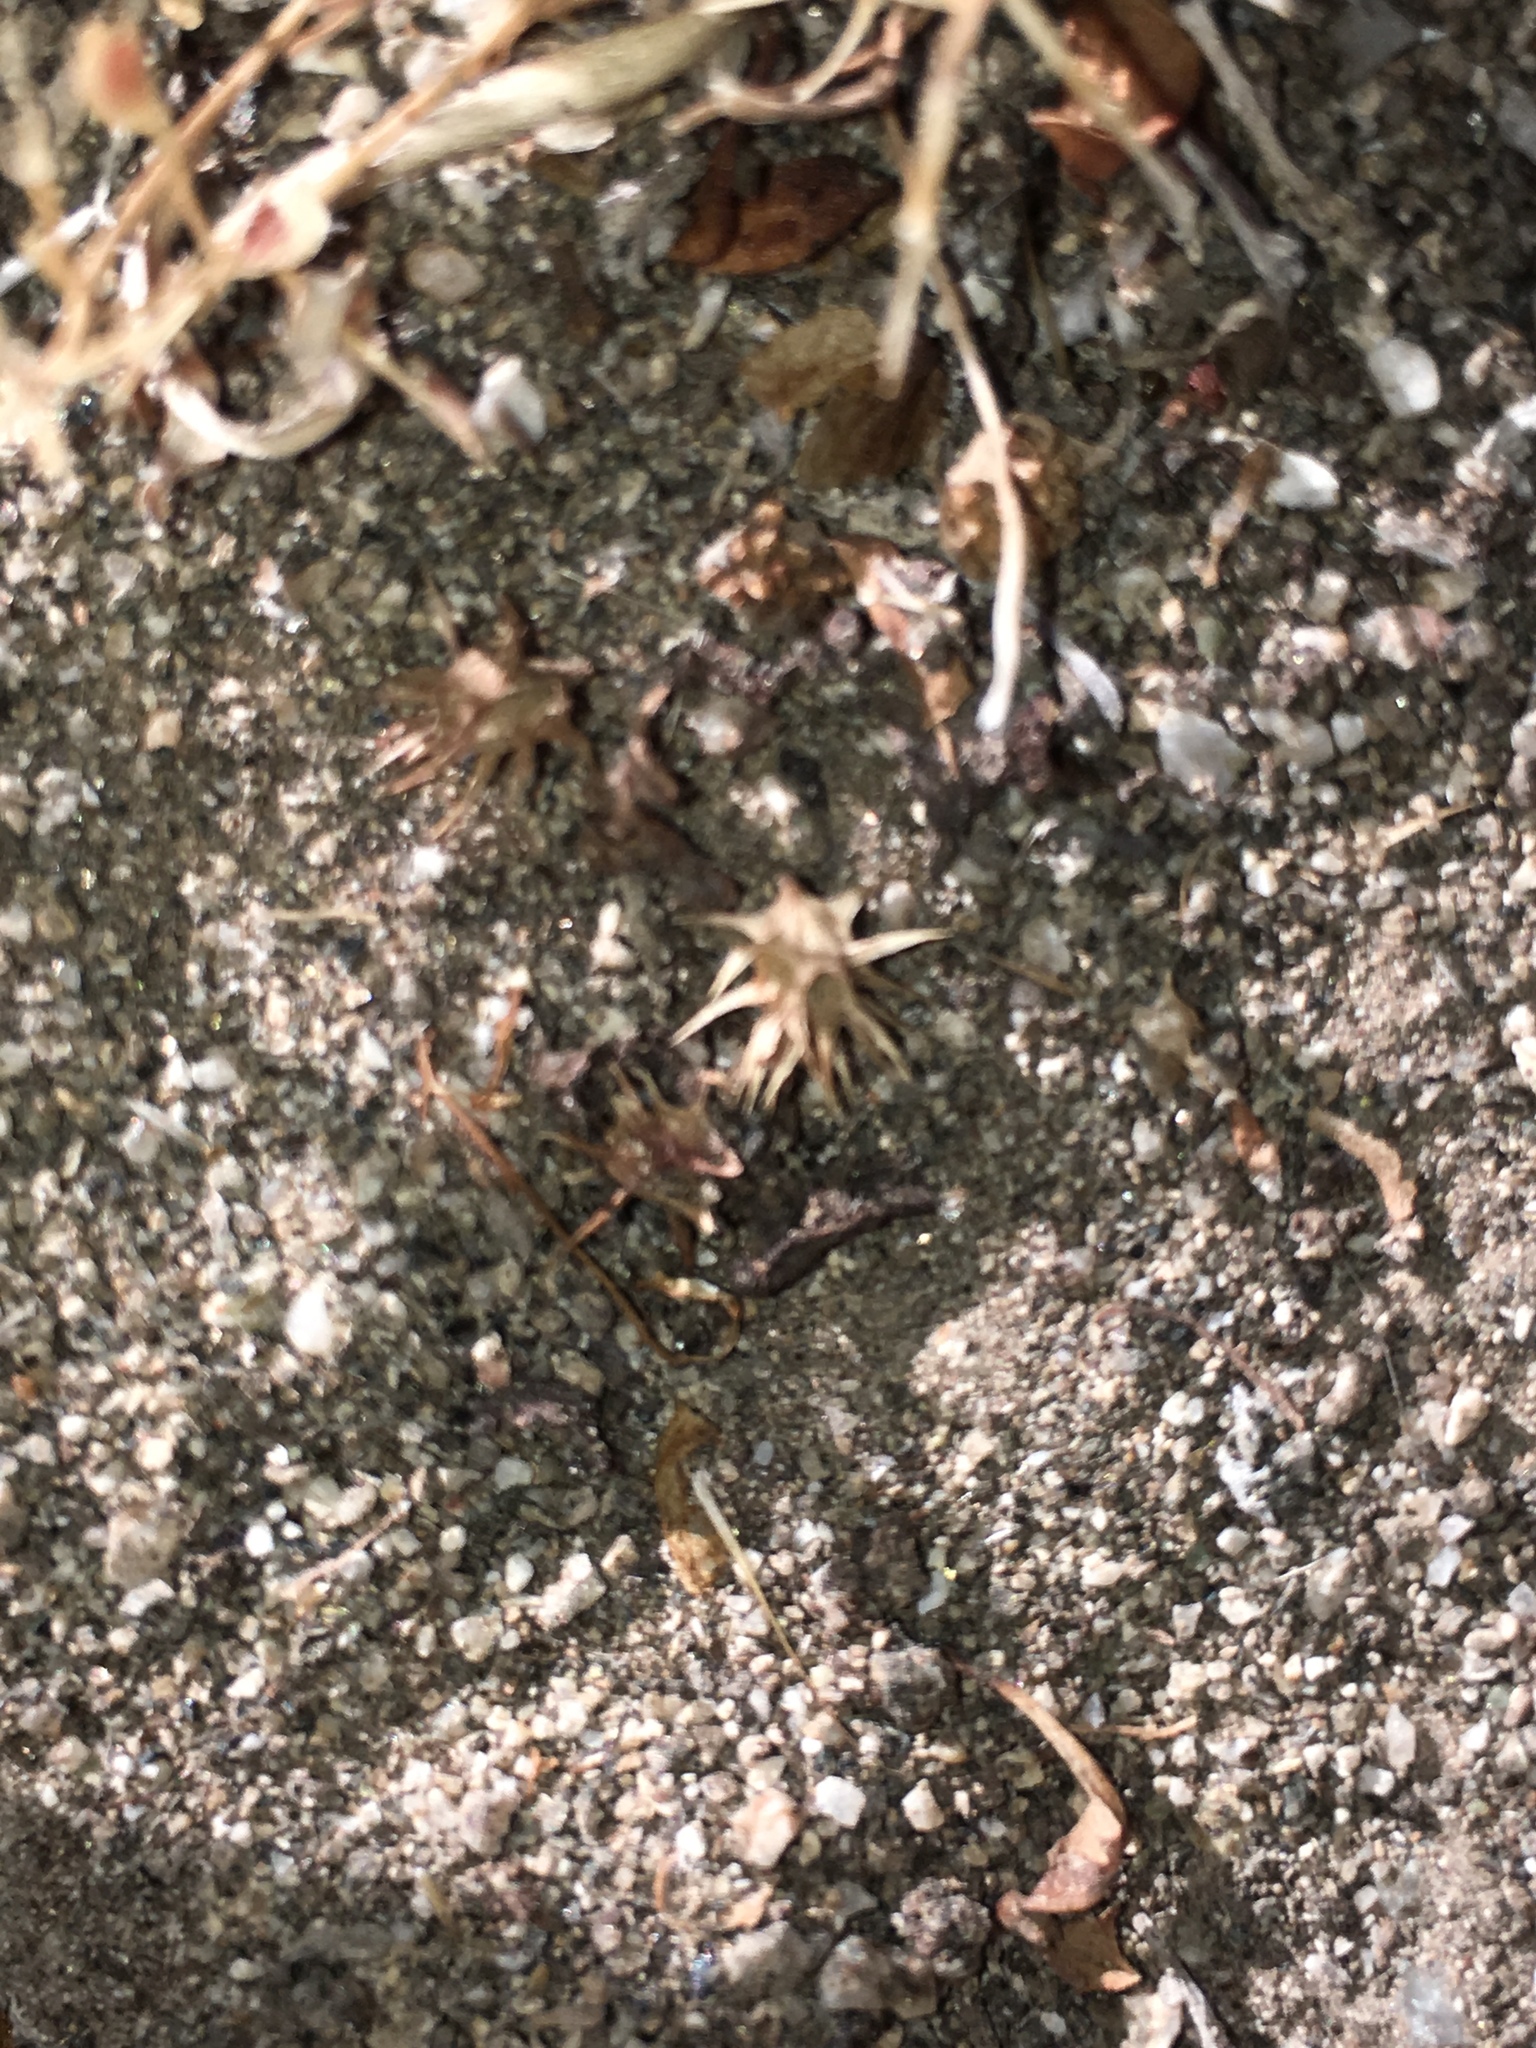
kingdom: Plantae
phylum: Tracheophyta
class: Magnoliopsida
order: Asterales
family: Asteraceae
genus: Ambrosia
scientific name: Ambrosia dumosa
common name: Bur-sage
